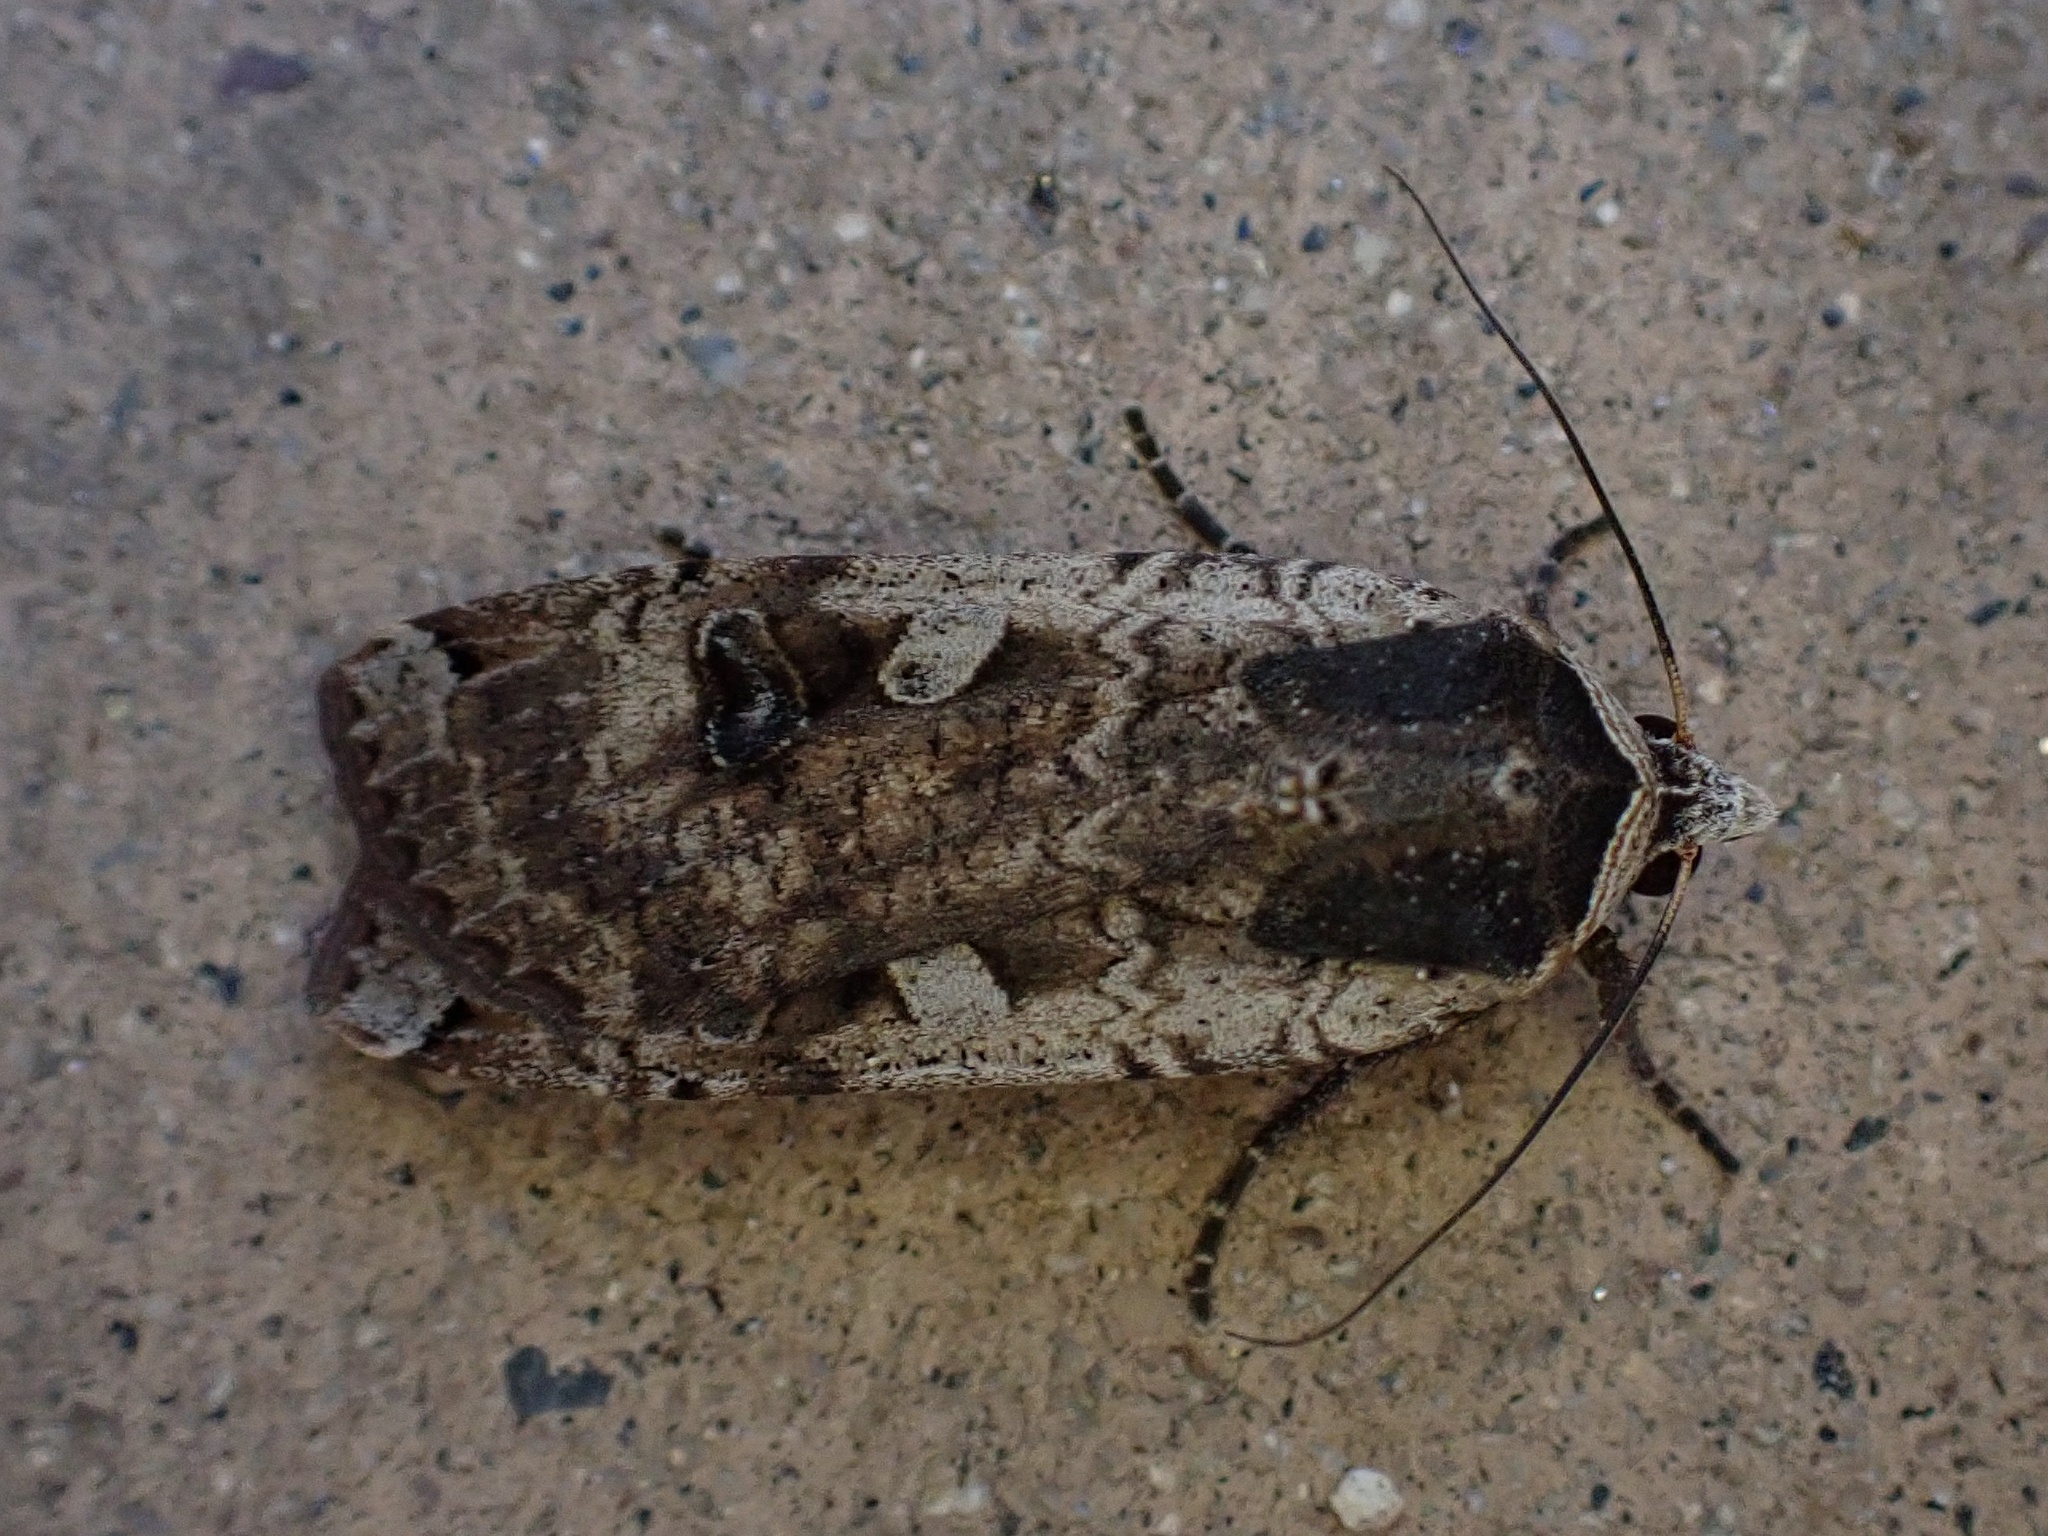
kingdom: Animalia
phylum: Arthropoda
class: Insecta
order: Lepidoptera
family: Noctuidae
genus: Noctua
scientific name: Noctua pronuba
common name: Large yellow underwing
